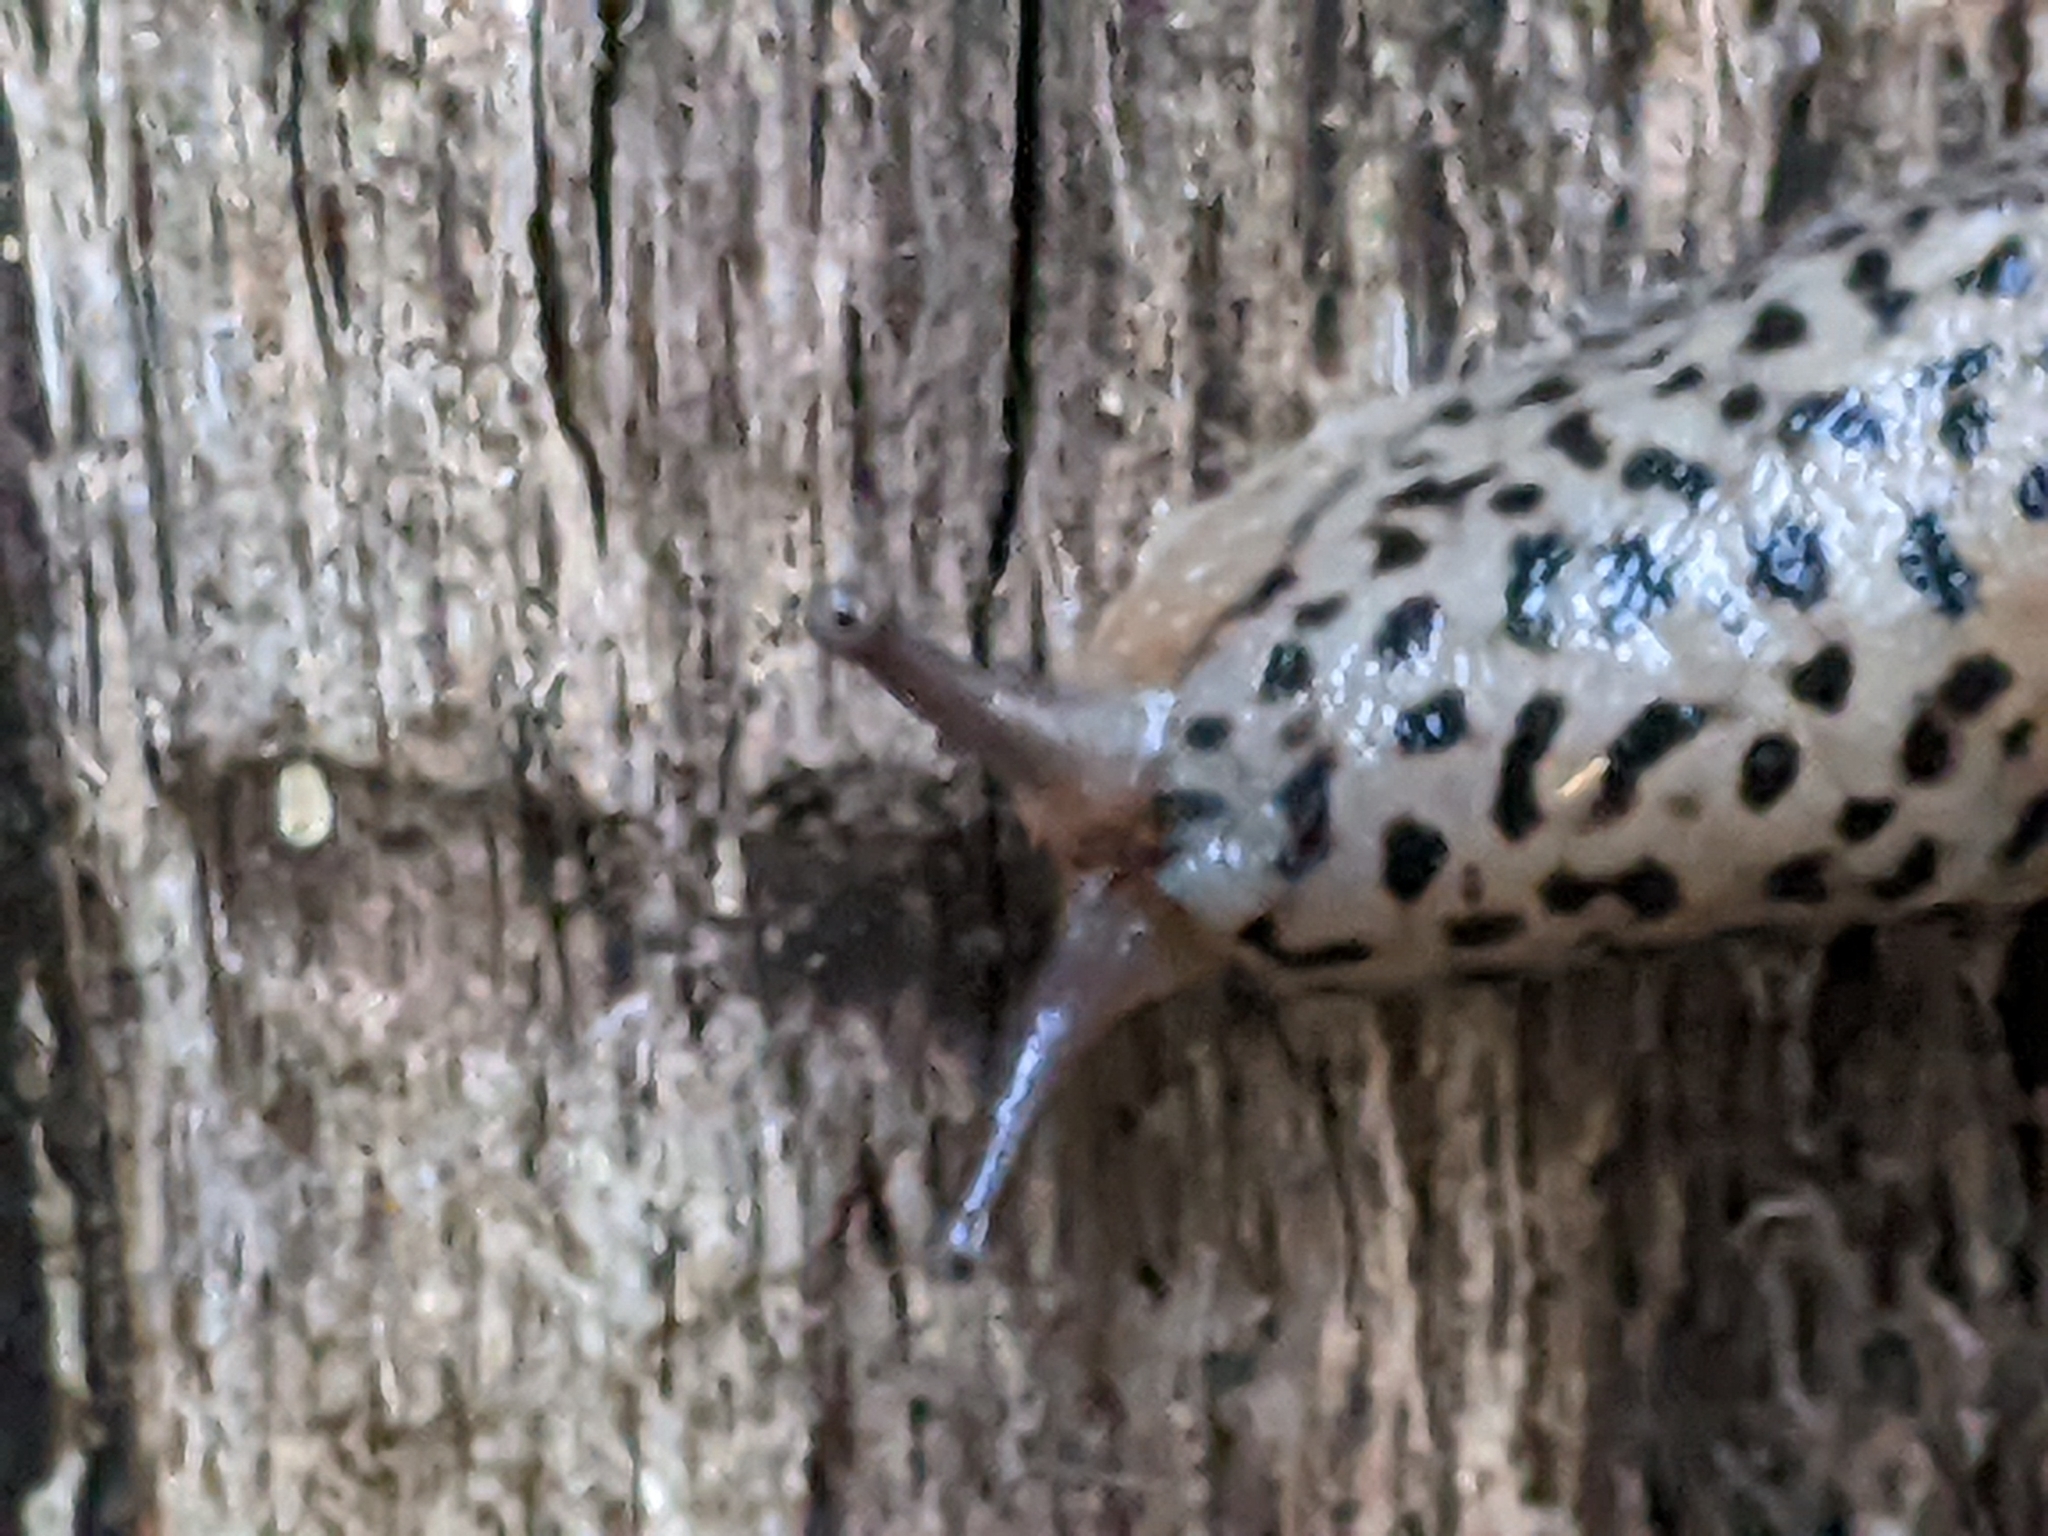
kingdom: Animalia
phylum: Mollusca
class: Gastropoda
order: Stylommatophora
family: Limacidae
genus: Limax
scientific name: Limax maximus
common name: Great grey slug
